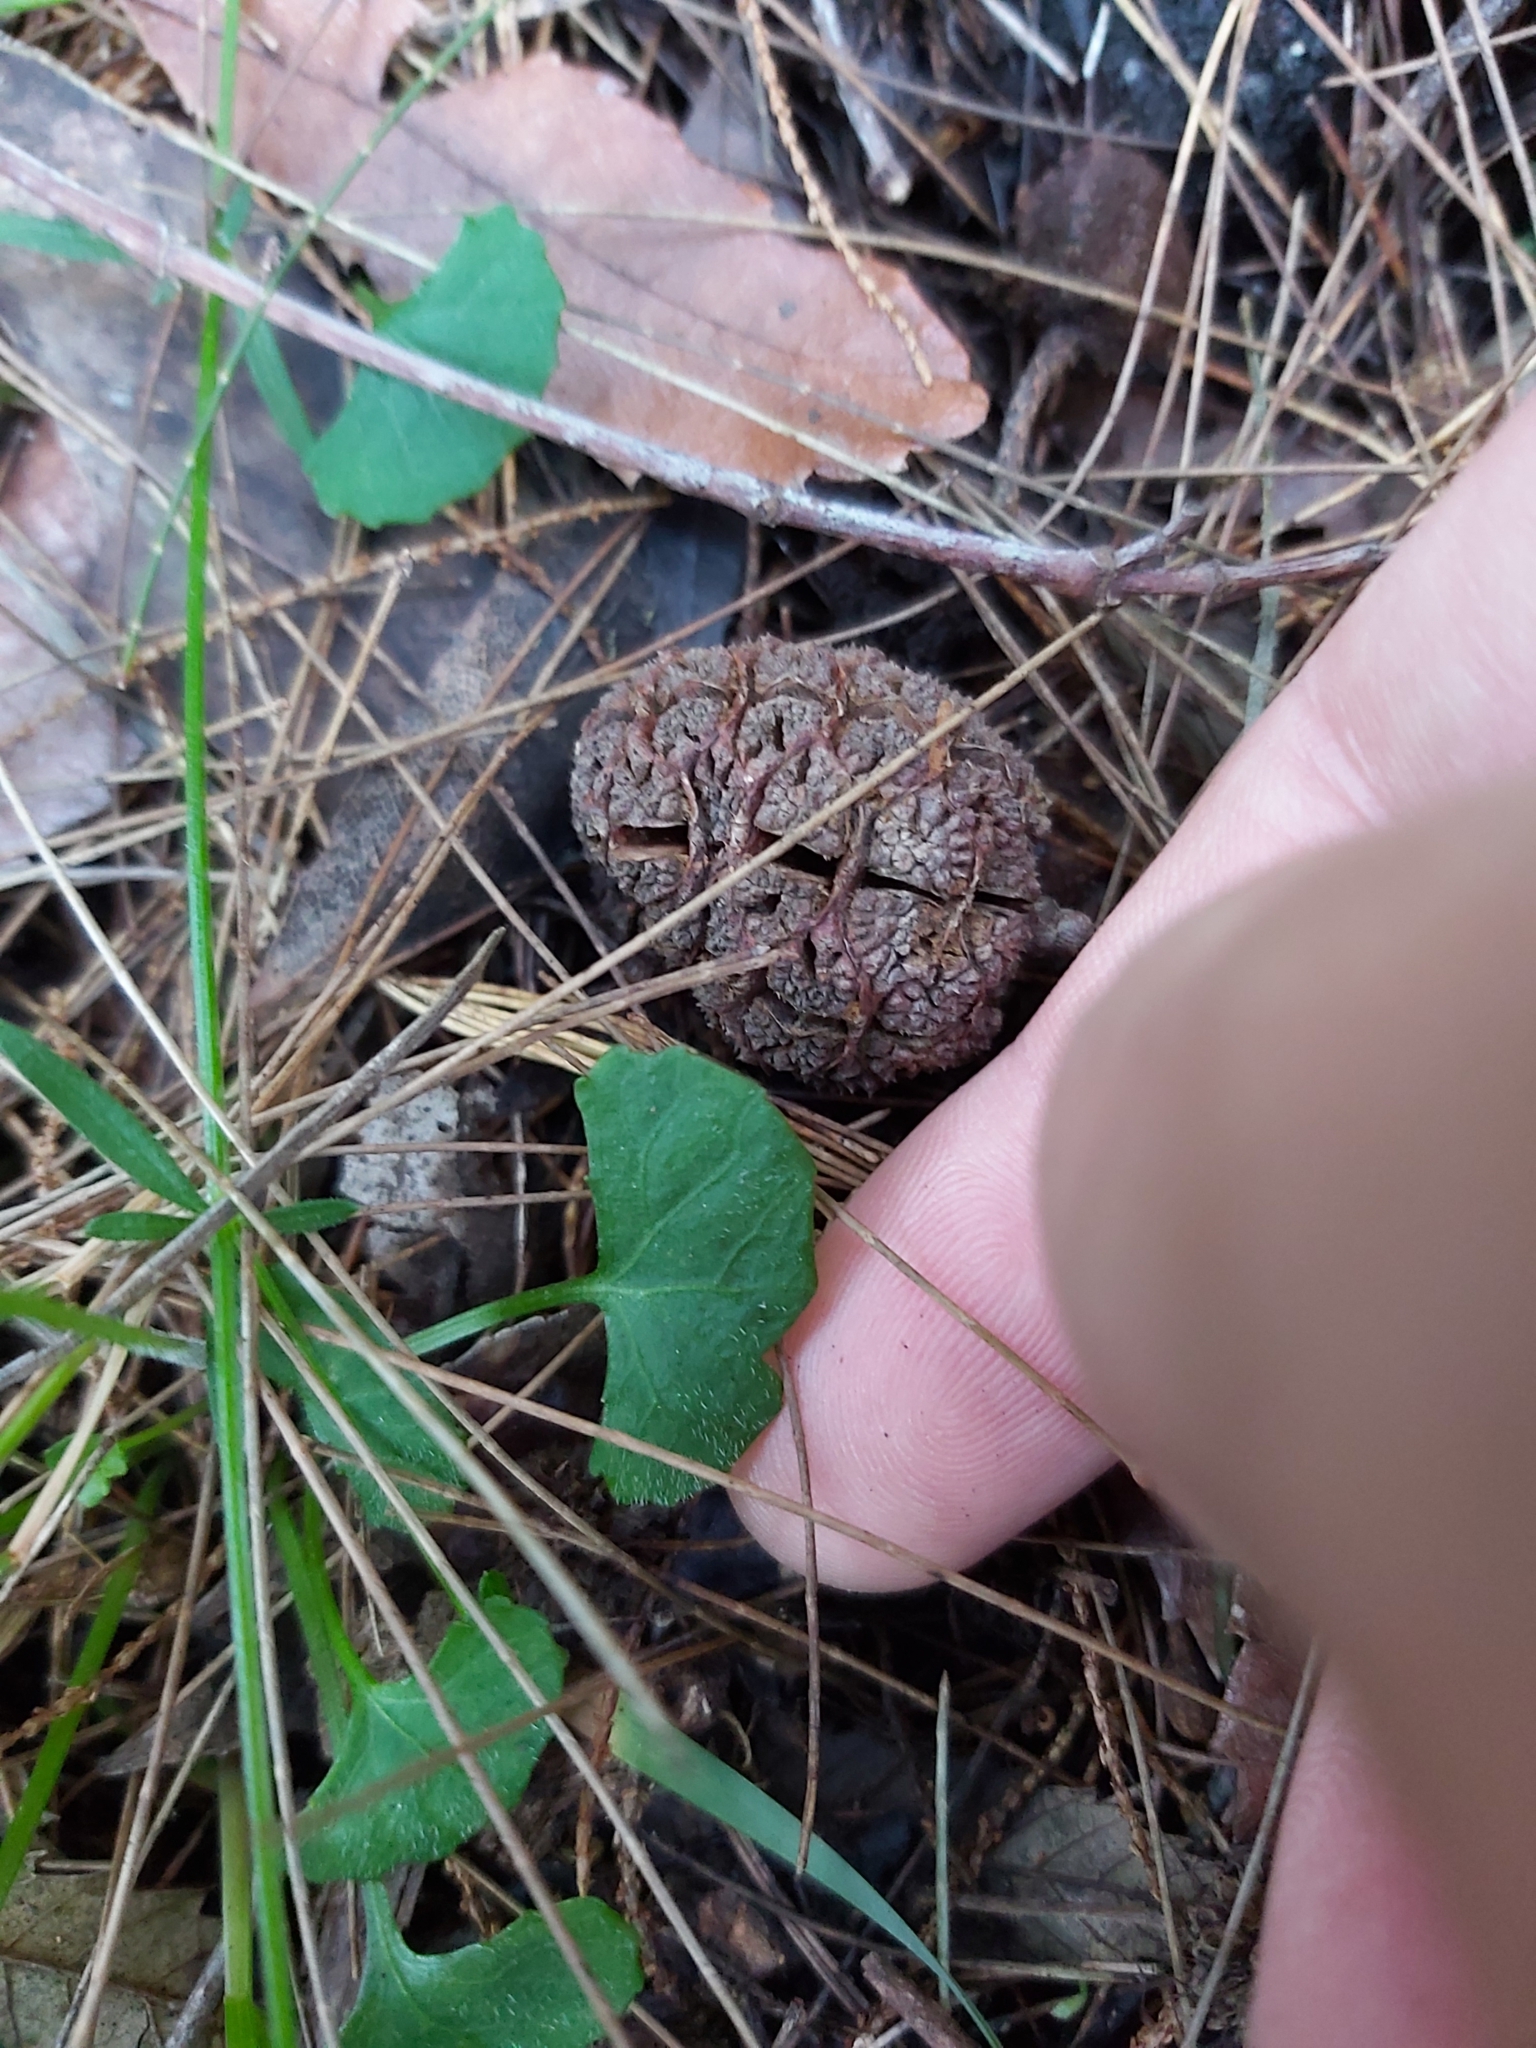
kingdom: Plantae
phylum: Tracheophyta
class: Magnoliopsida
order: Malpighiales
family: Violaceae
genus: Viola
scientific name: Viola hederacea
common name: Australian violet
